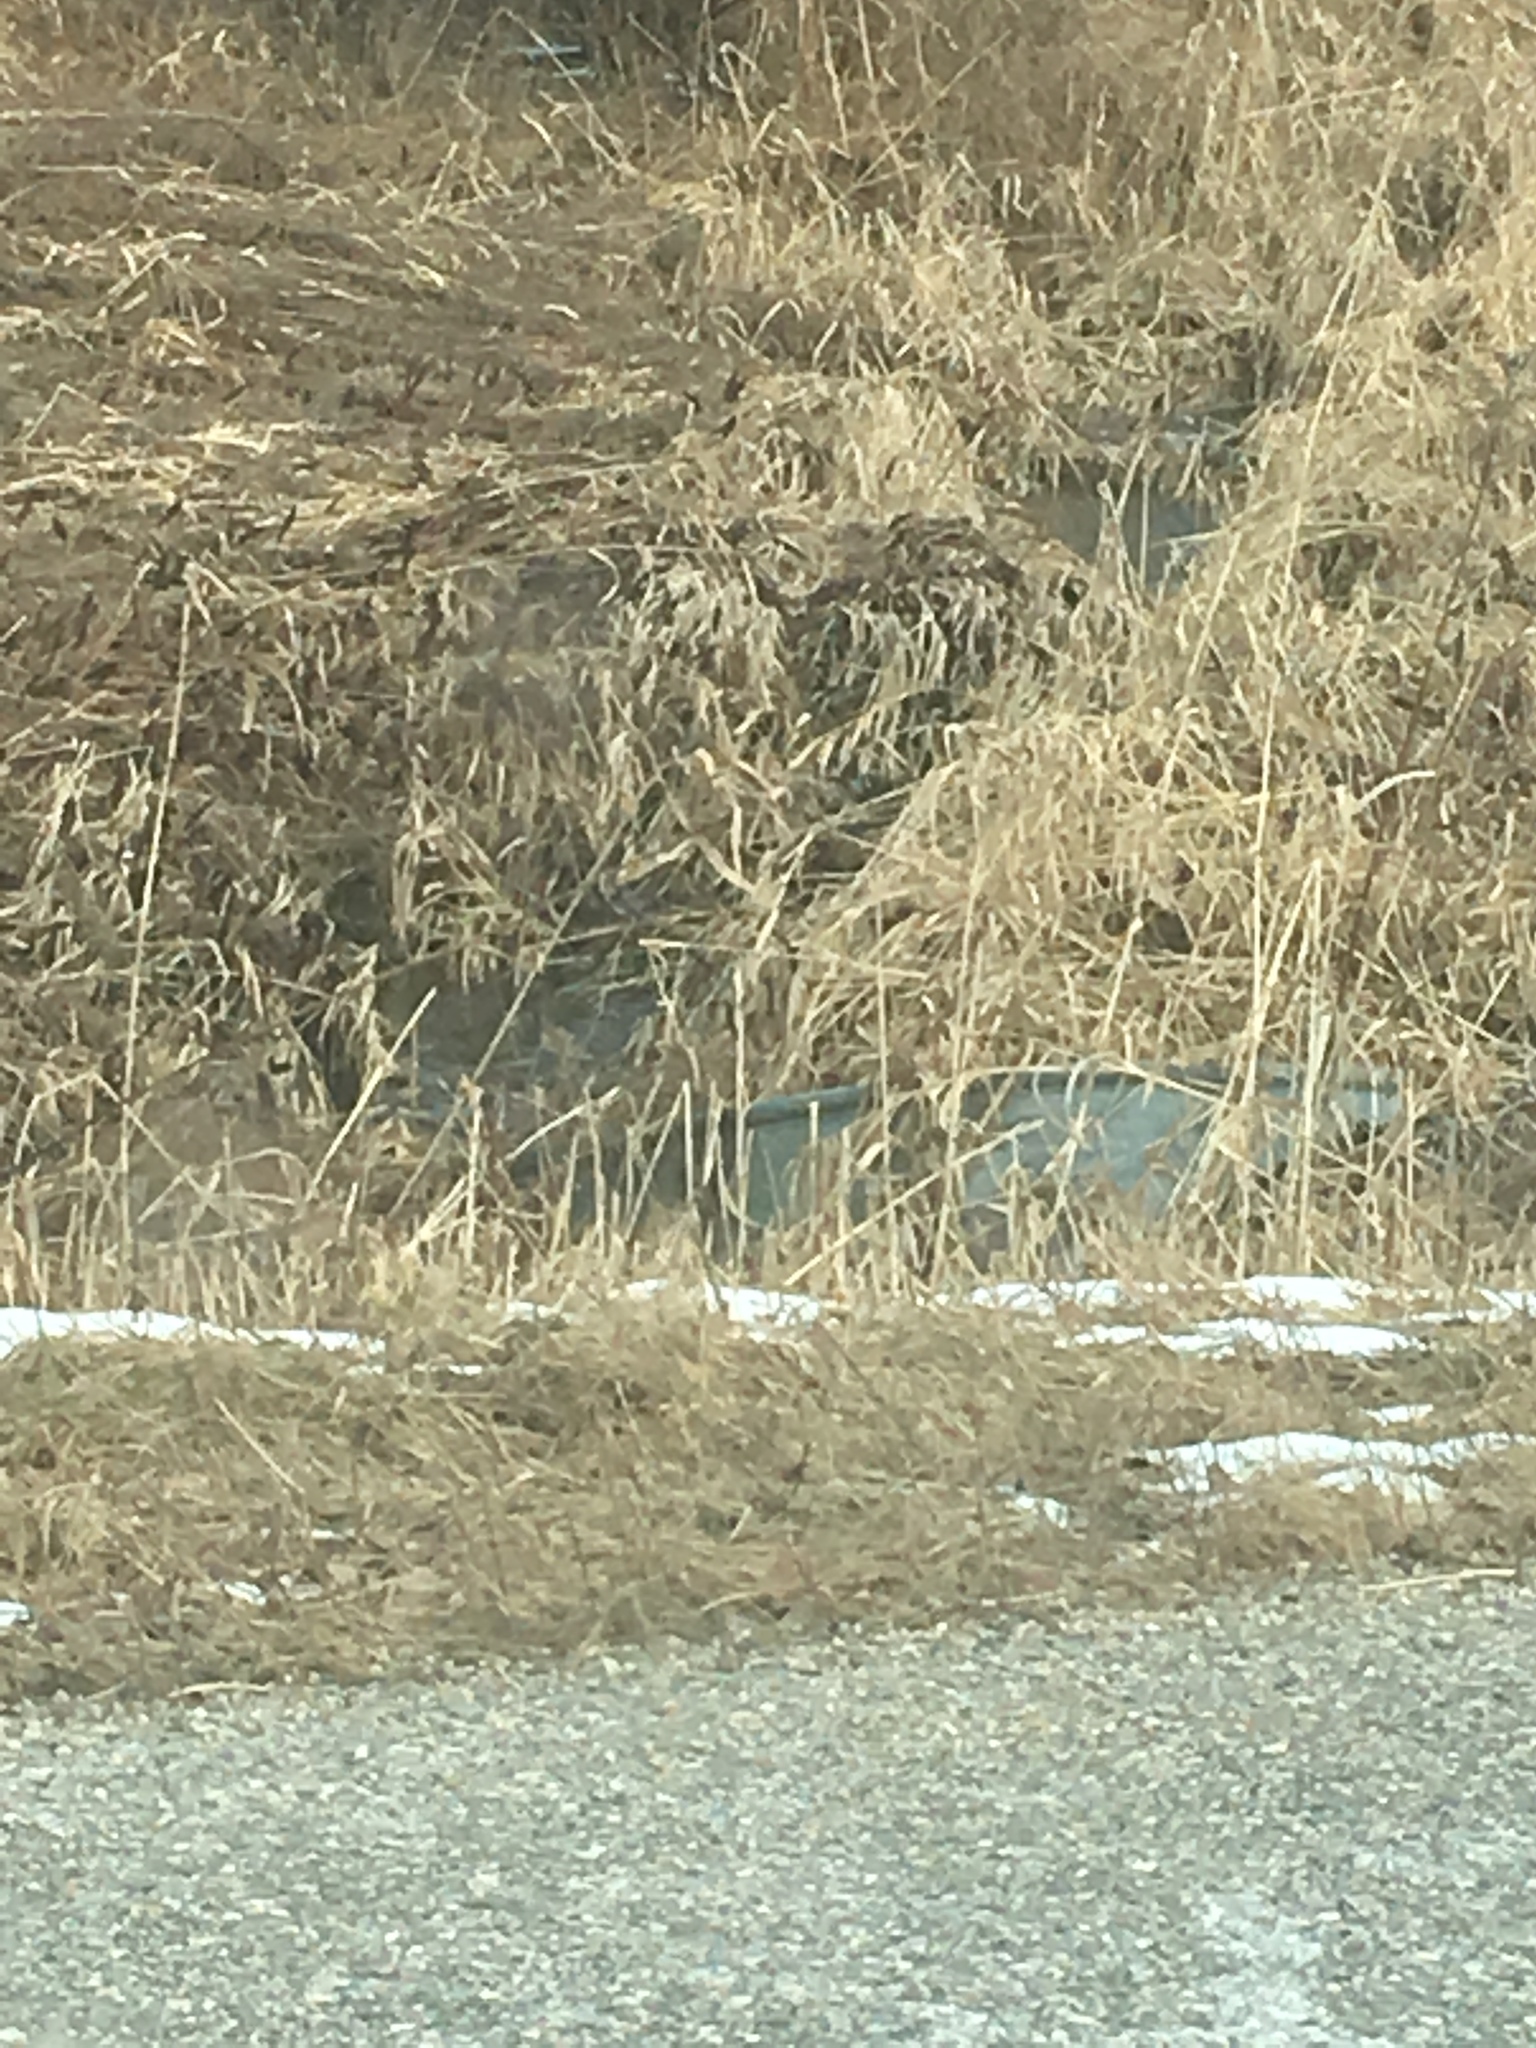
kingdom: Plantae
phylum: Tracheophyta
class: Polypodiopsida
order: Polypodiales
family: Onocleaceae
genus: Onoclea
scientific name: Onoclea sensibilis
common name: Sensitive fern
